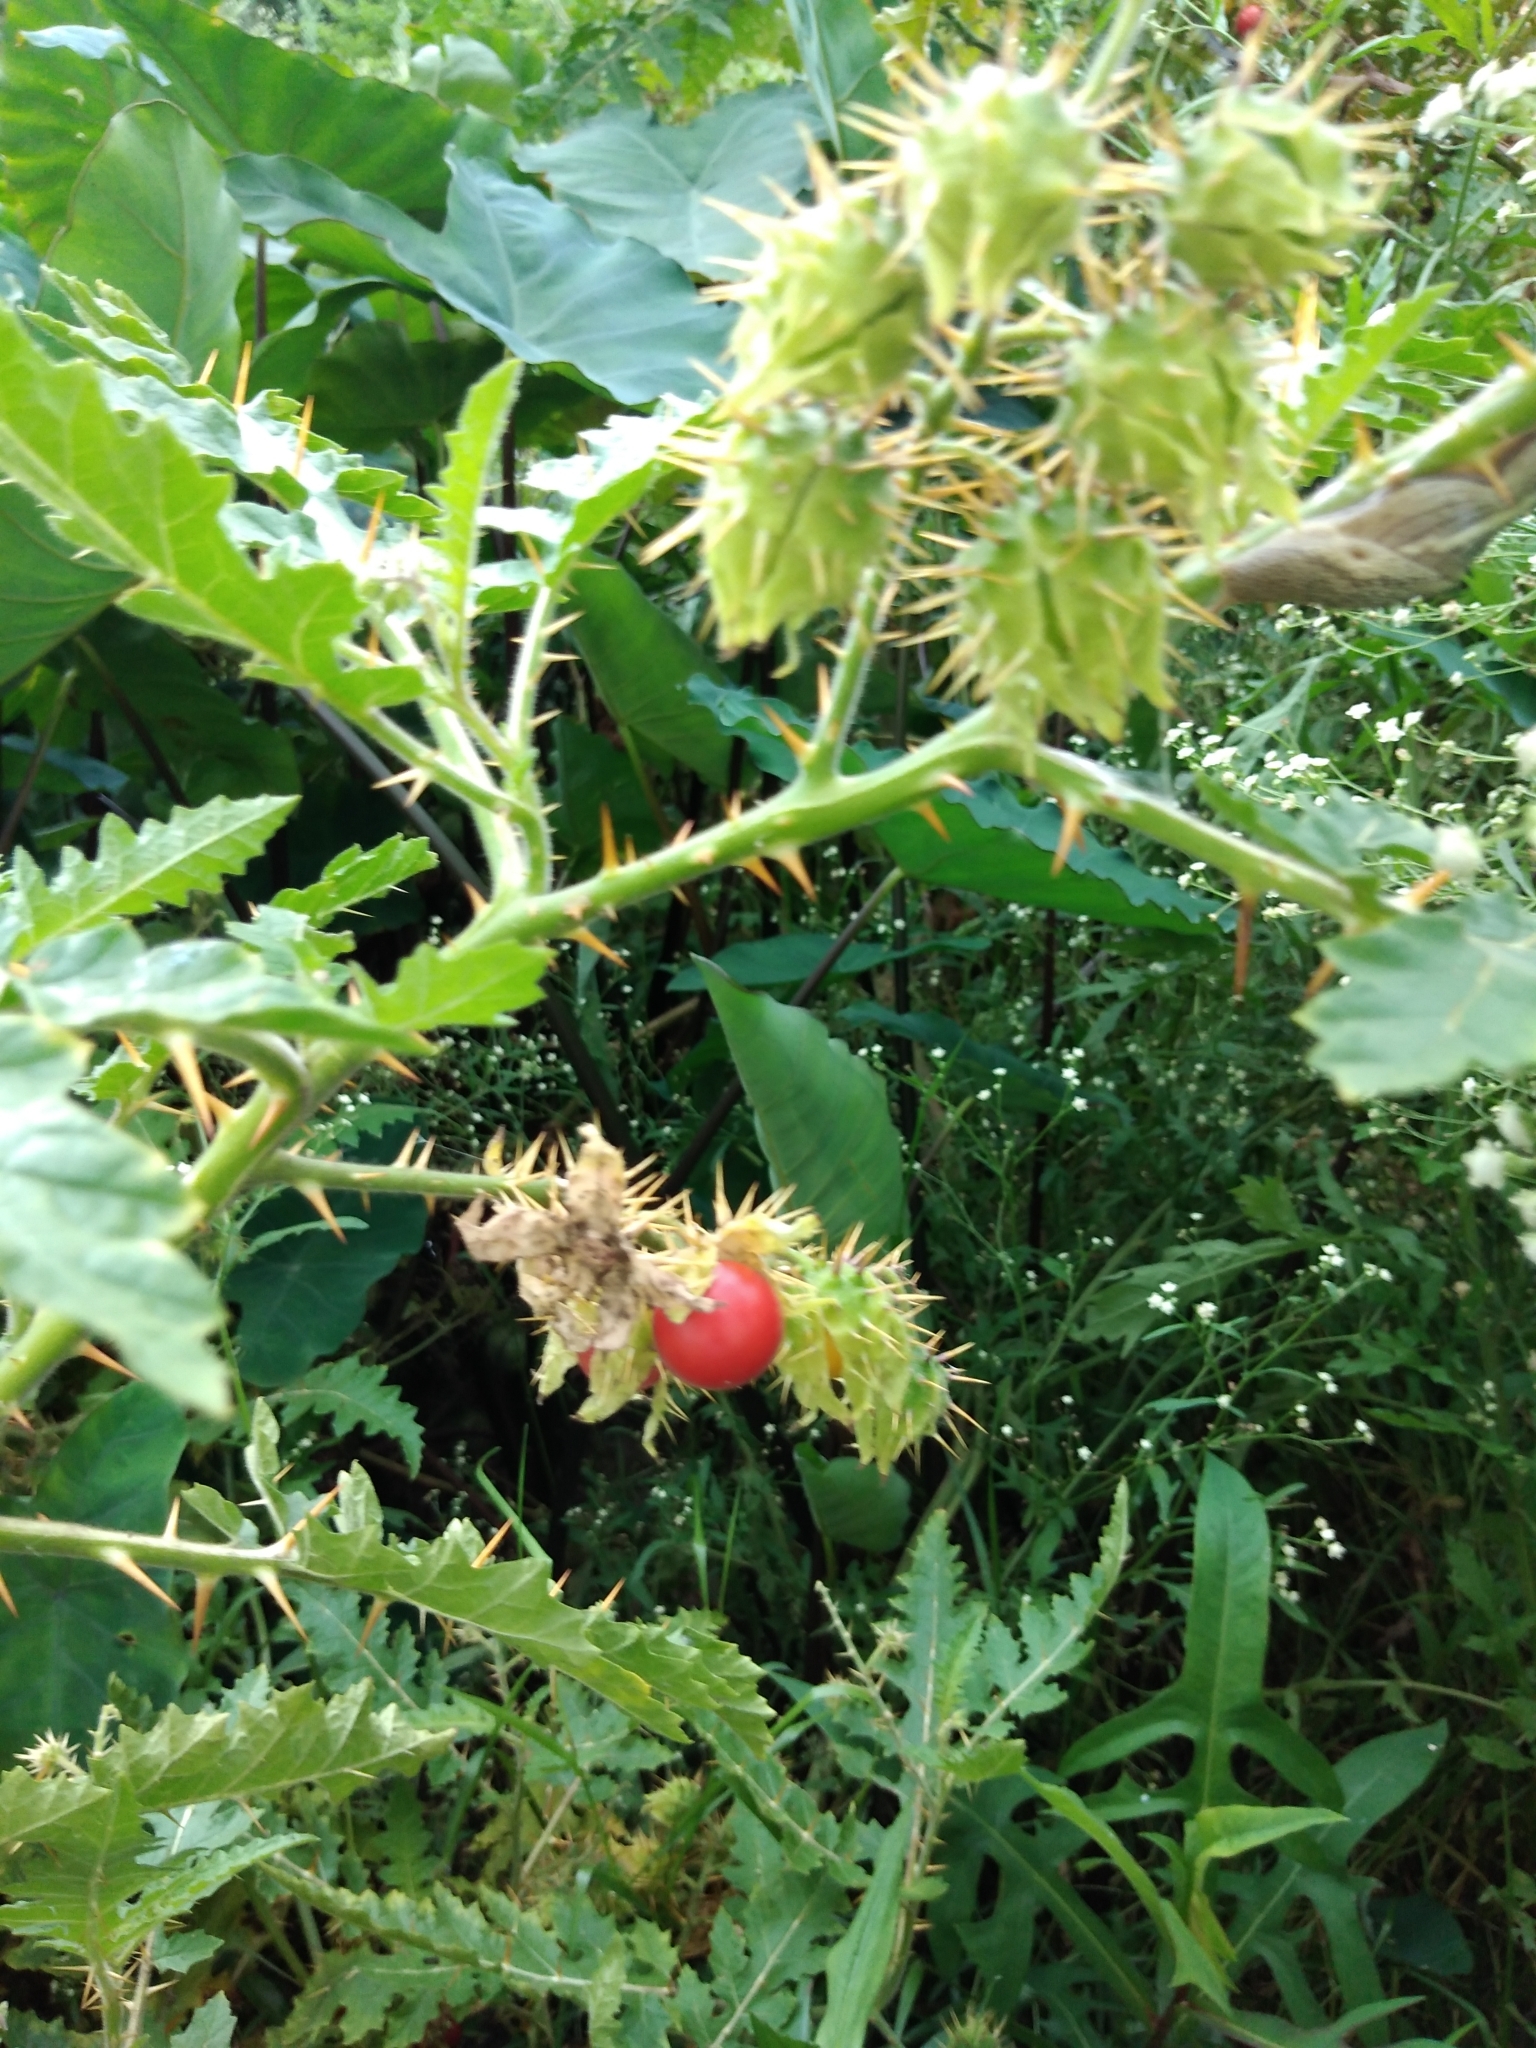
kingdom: Plantae
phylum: Tracheophyta
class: Magnoliopsida
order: Solanales
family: Solanaceae
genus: Solanum
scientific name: Solanum sisymbriifolium
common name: Red buffalo-bur
